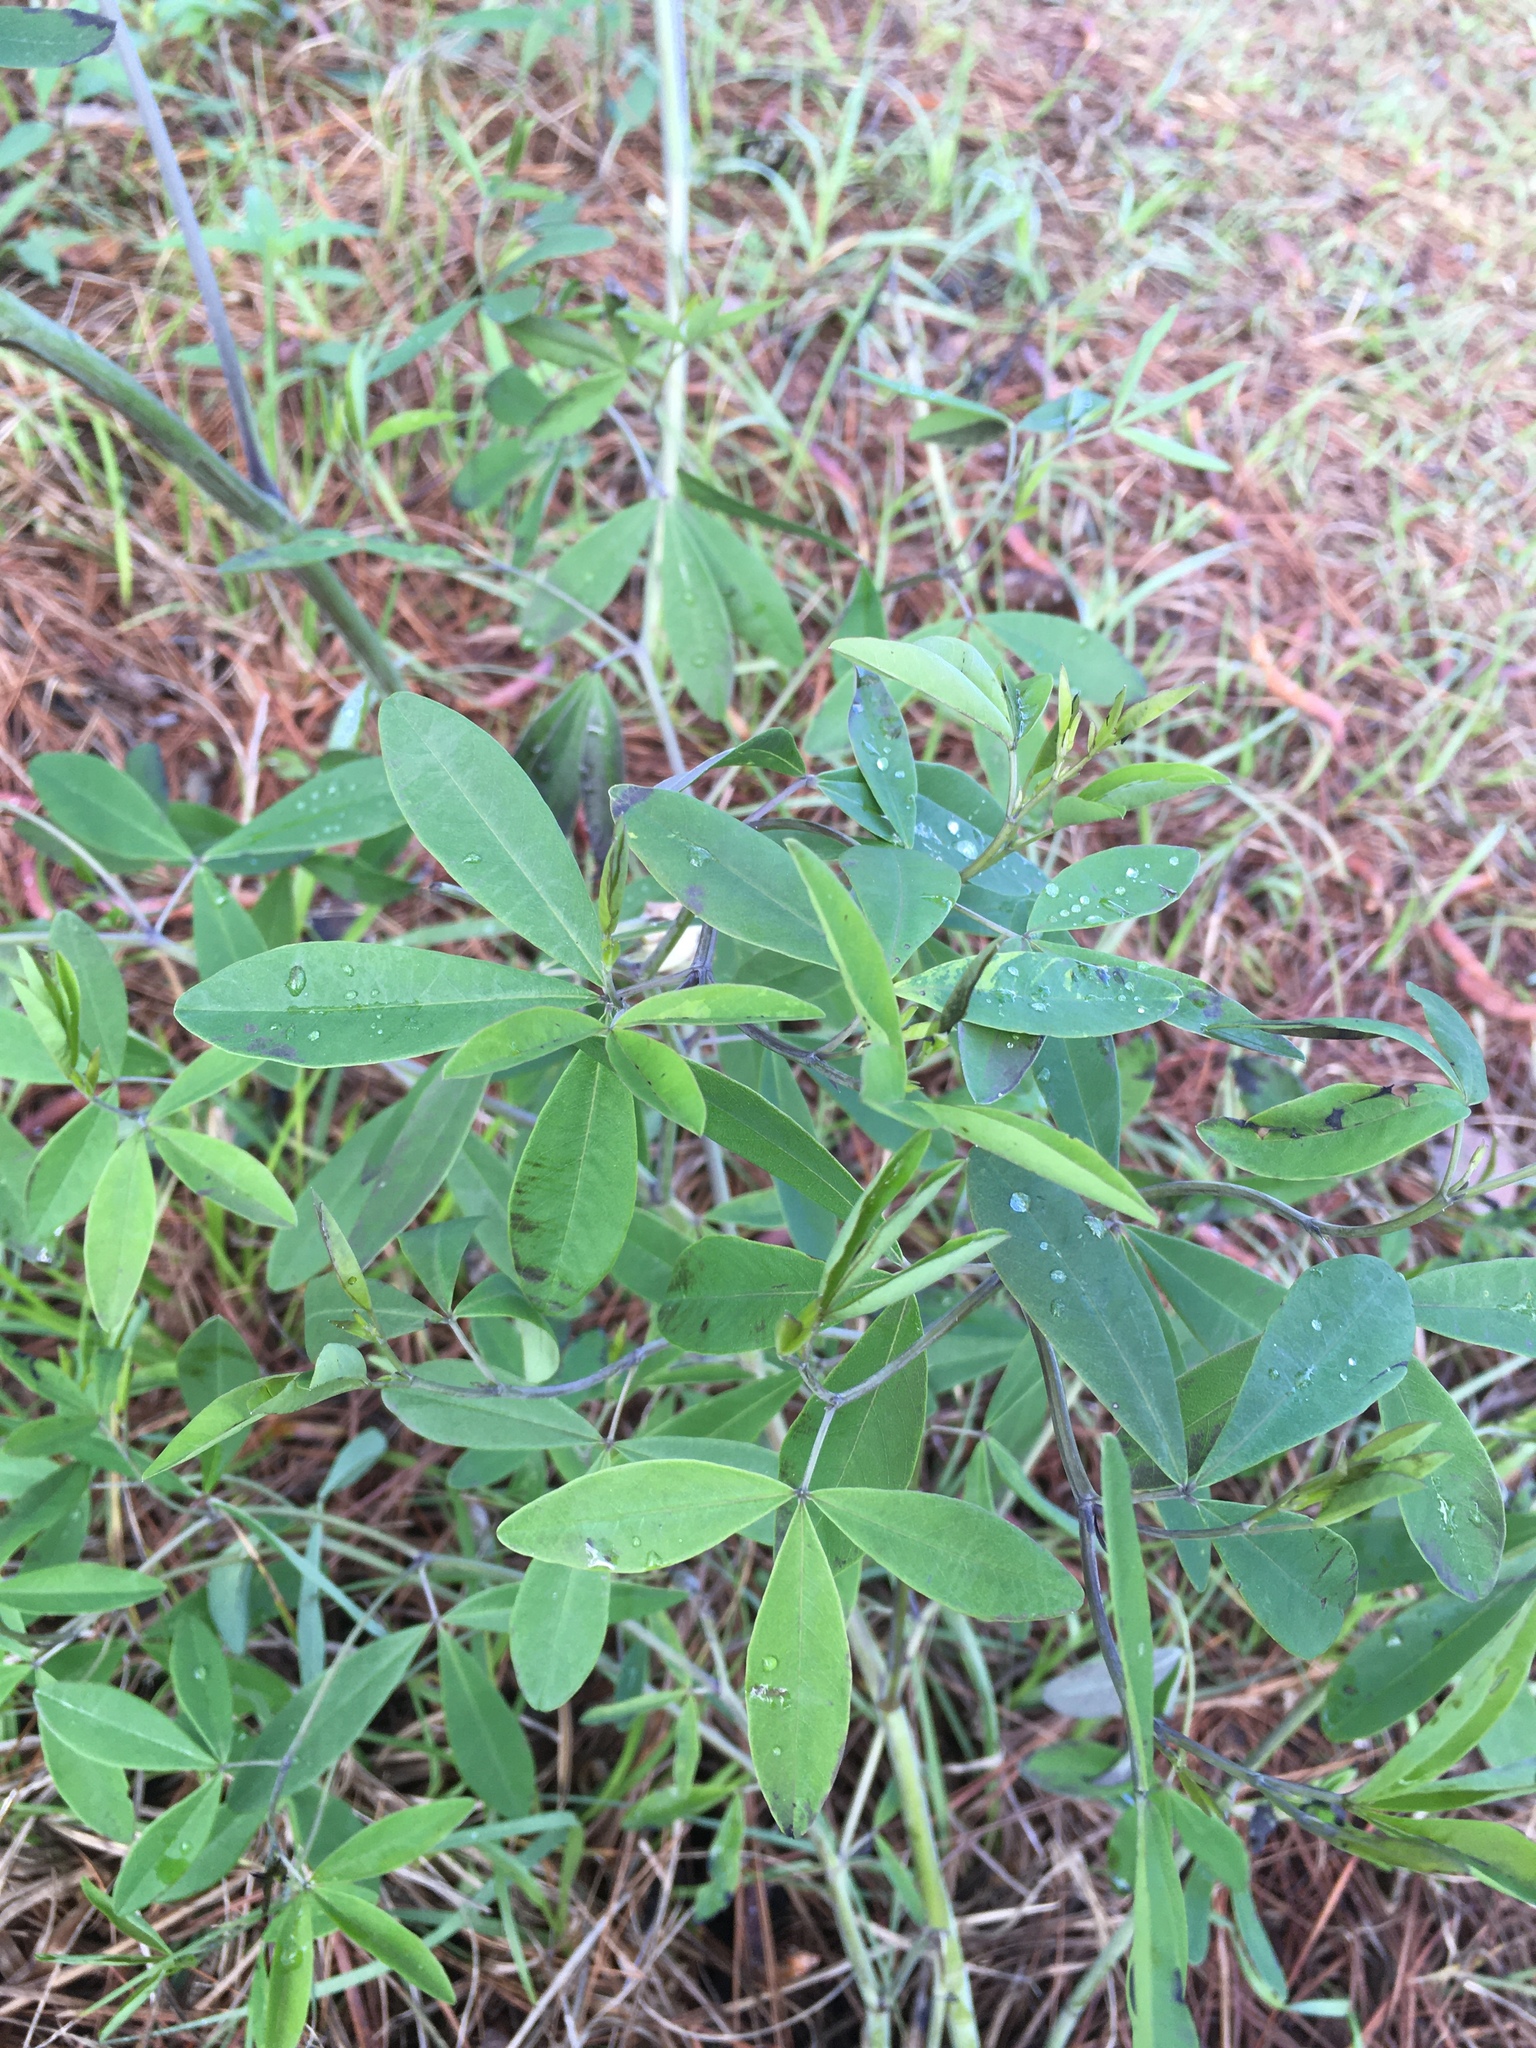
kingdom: Plantae
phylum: Tracheophyta
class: Magnoliopsida
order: Fabales
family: Fabaceae
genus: Baptisia
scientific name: Baptisia alba
